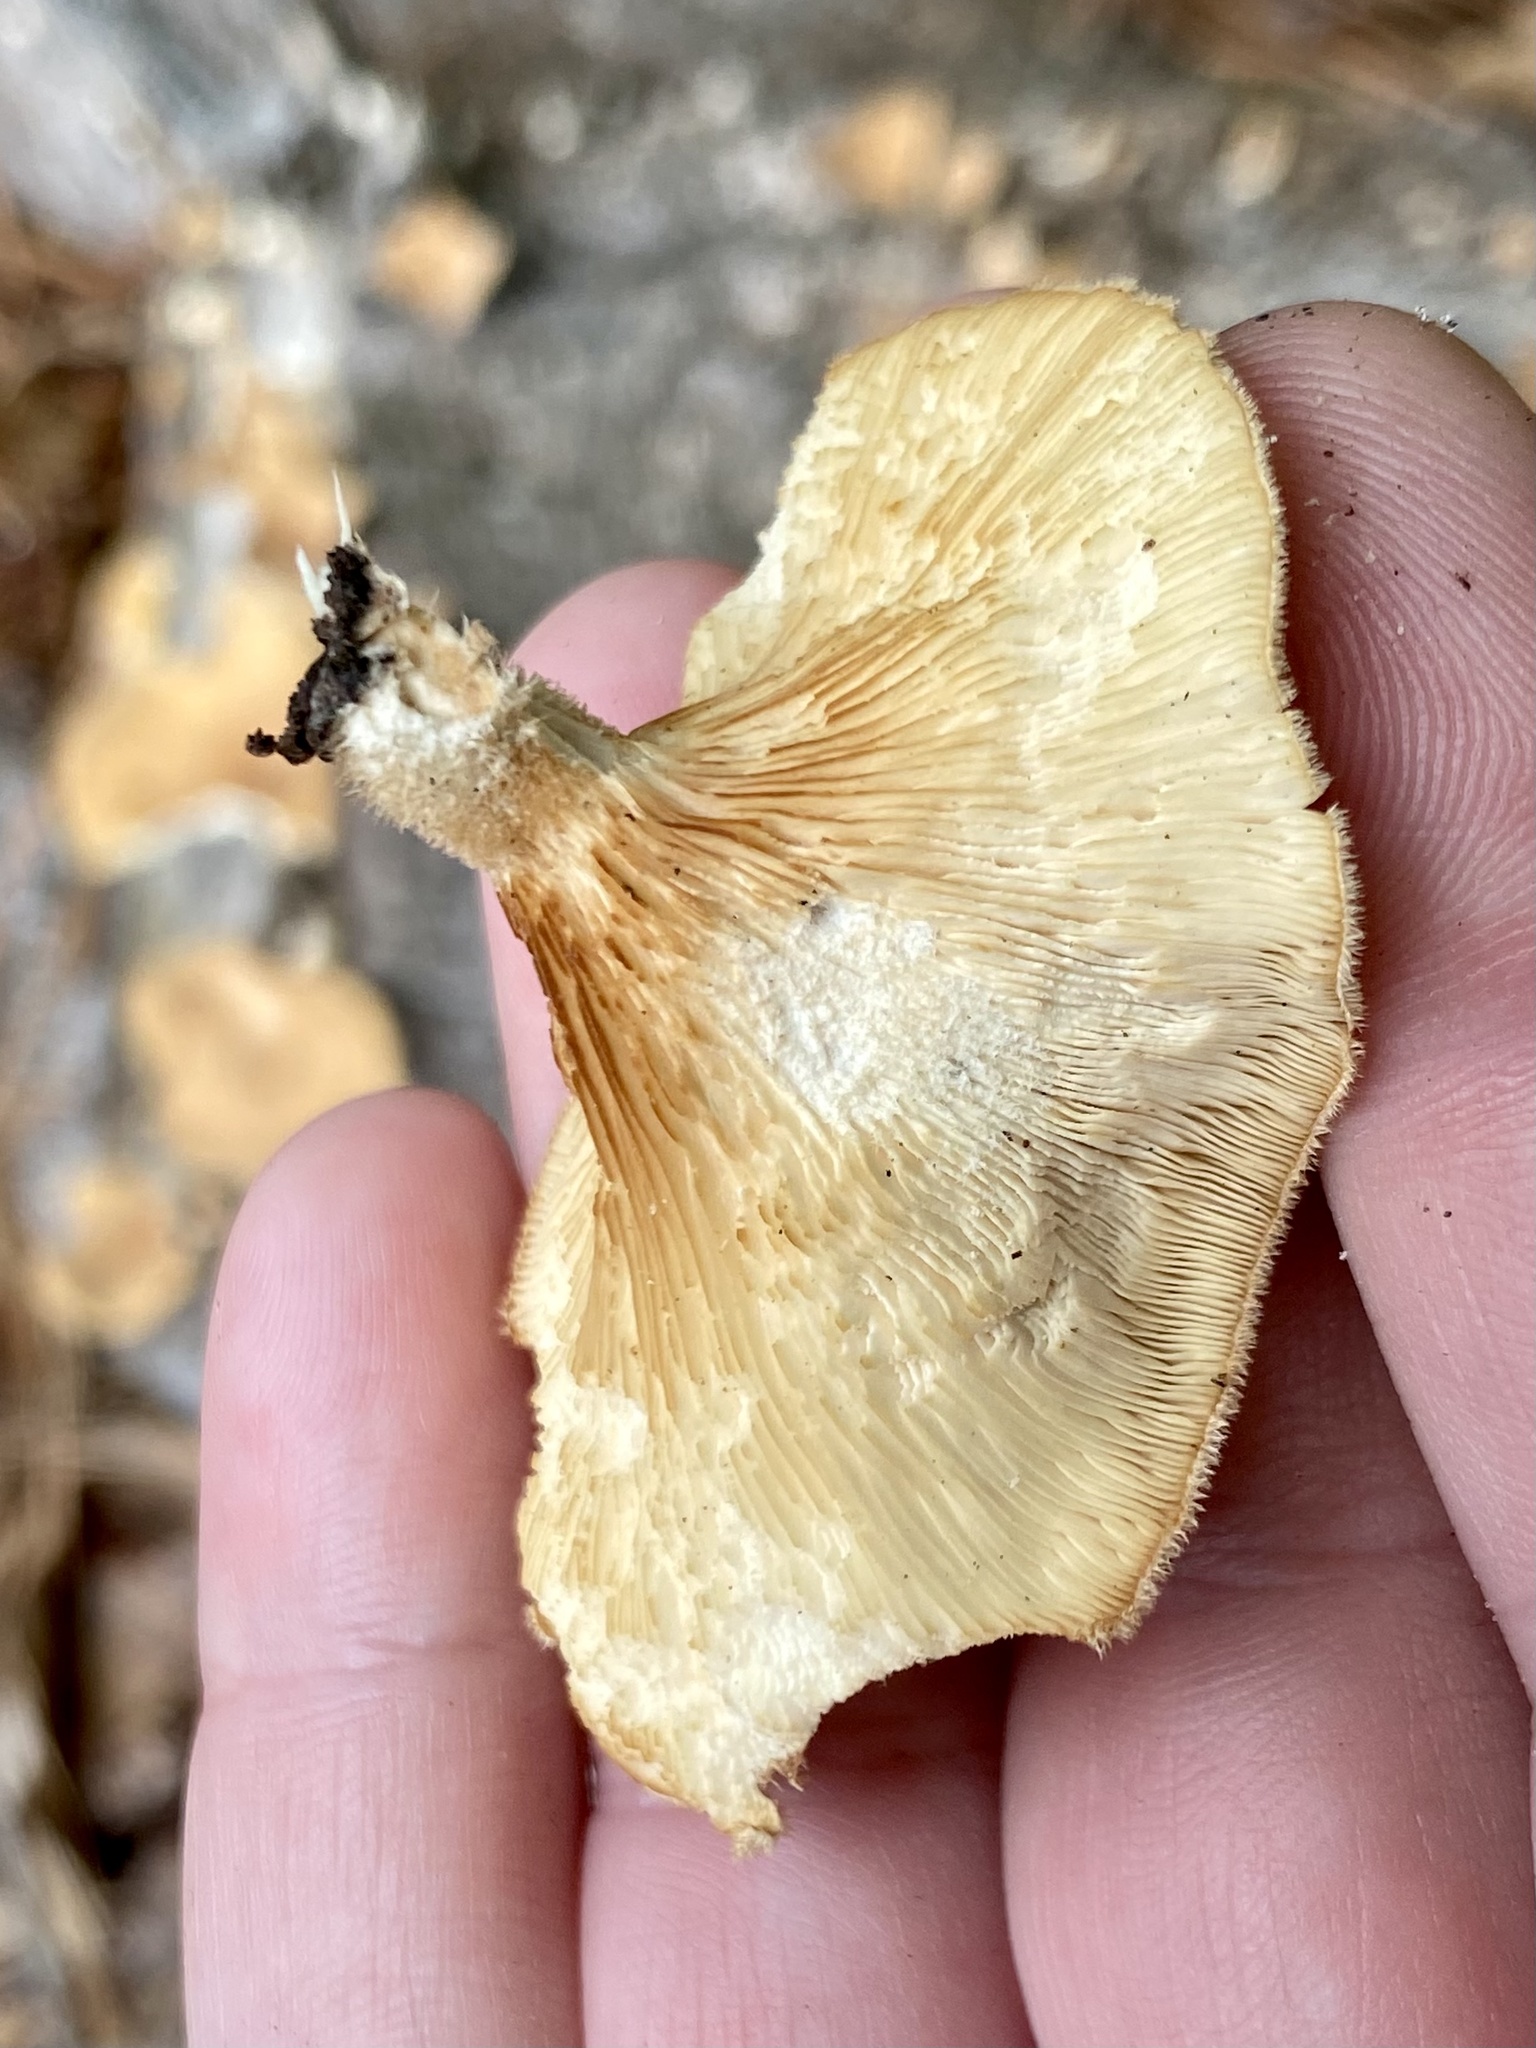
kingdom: Fungi
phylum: Basidiomycota
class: Agaricomycetes
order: Polyporales
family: Panaceae
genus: Panus
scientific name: Panus neostrigosus
